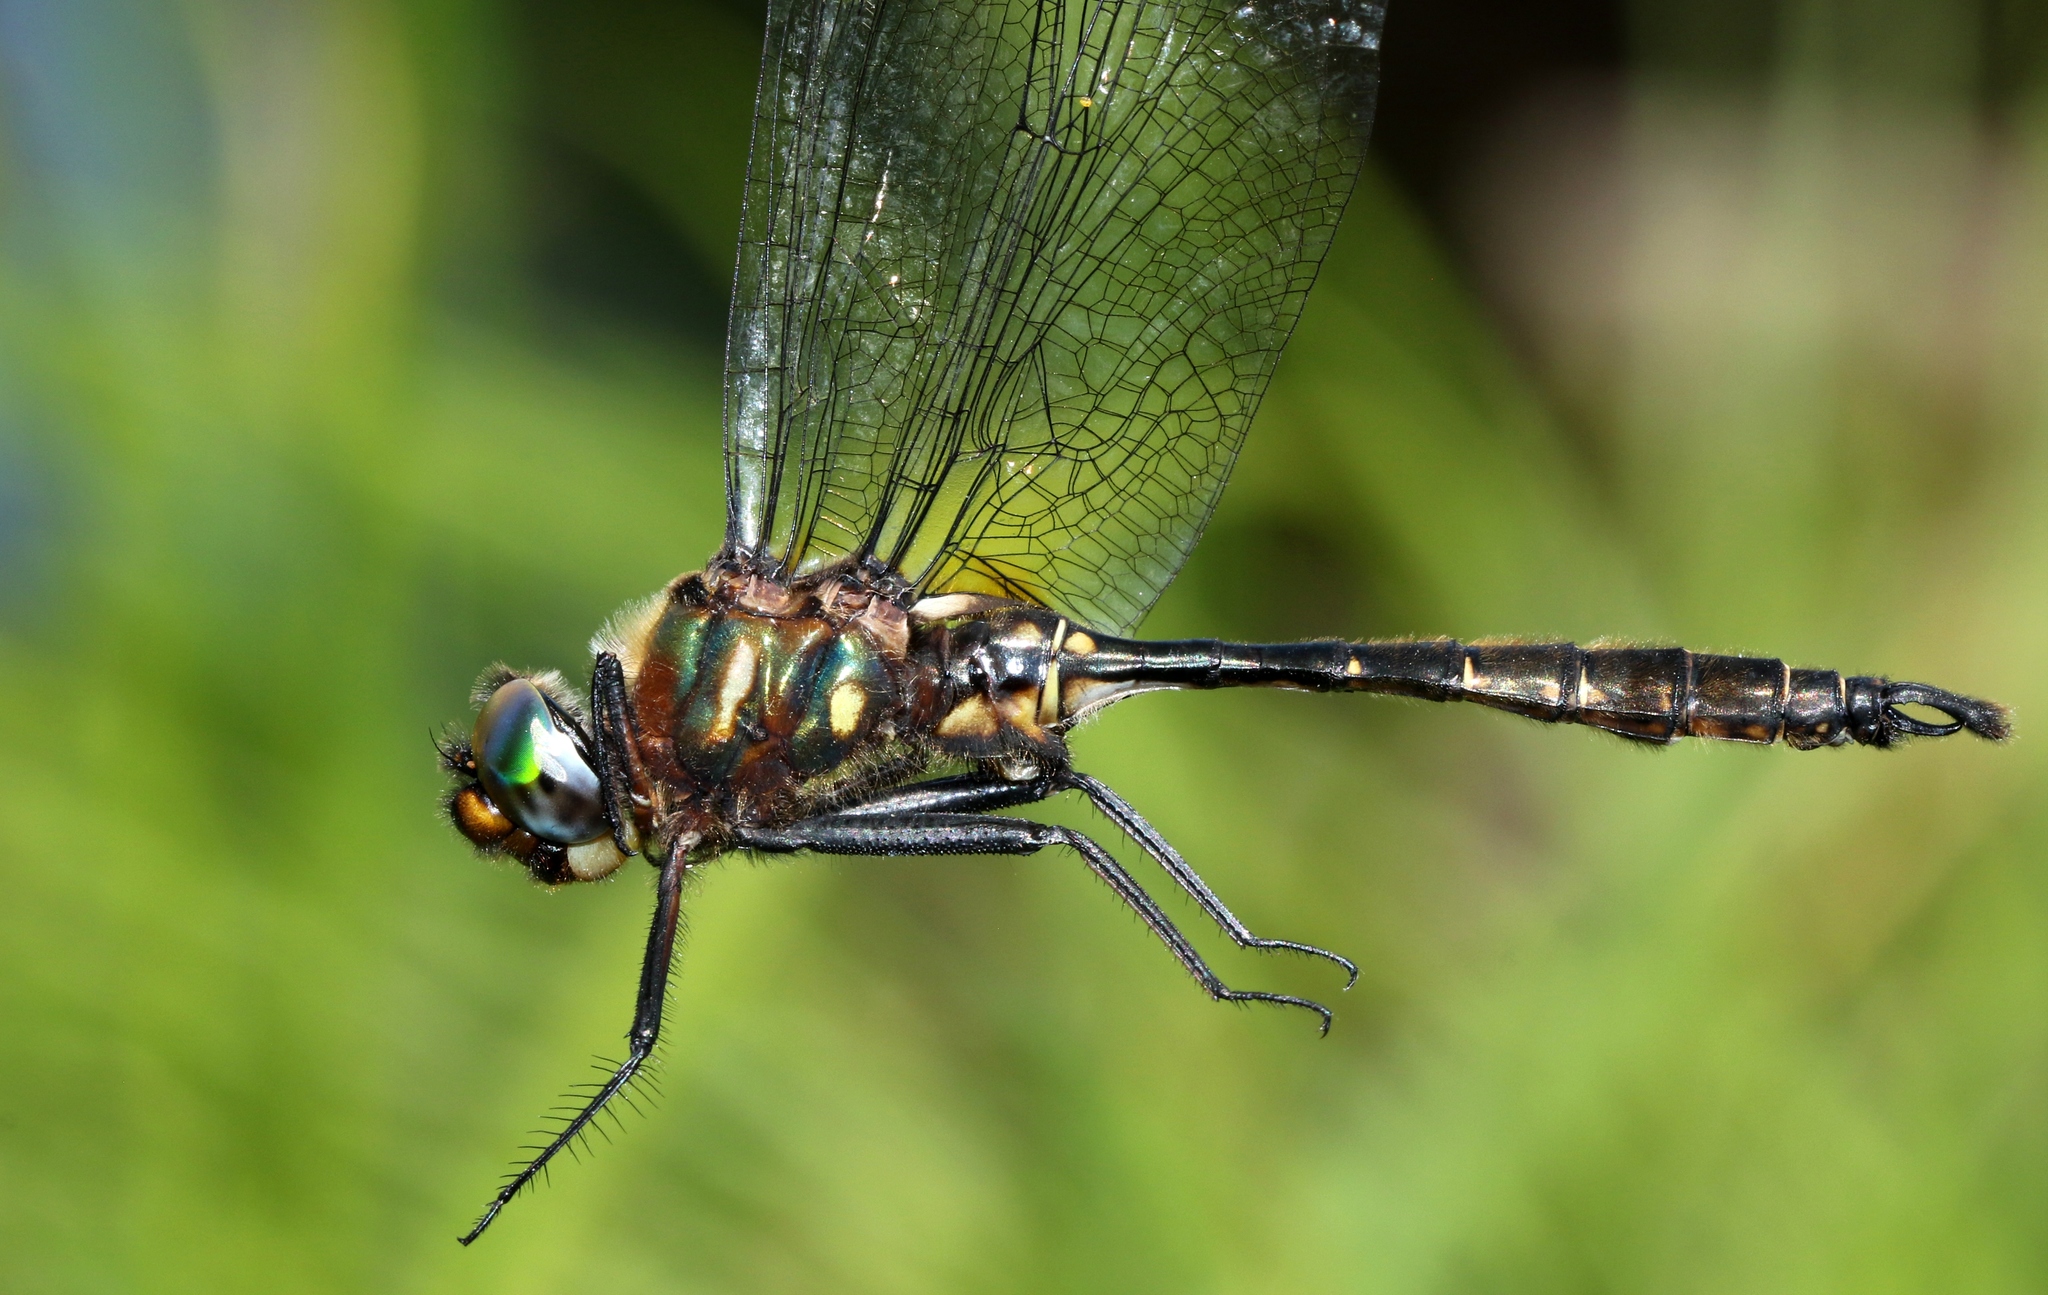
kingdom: Animalia
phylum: Arthropoda
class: Insecta
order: Odonata
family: Corduliidae
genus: Somatochlora
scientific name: Somatochlora walshii
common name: Brush-tipped emerald
